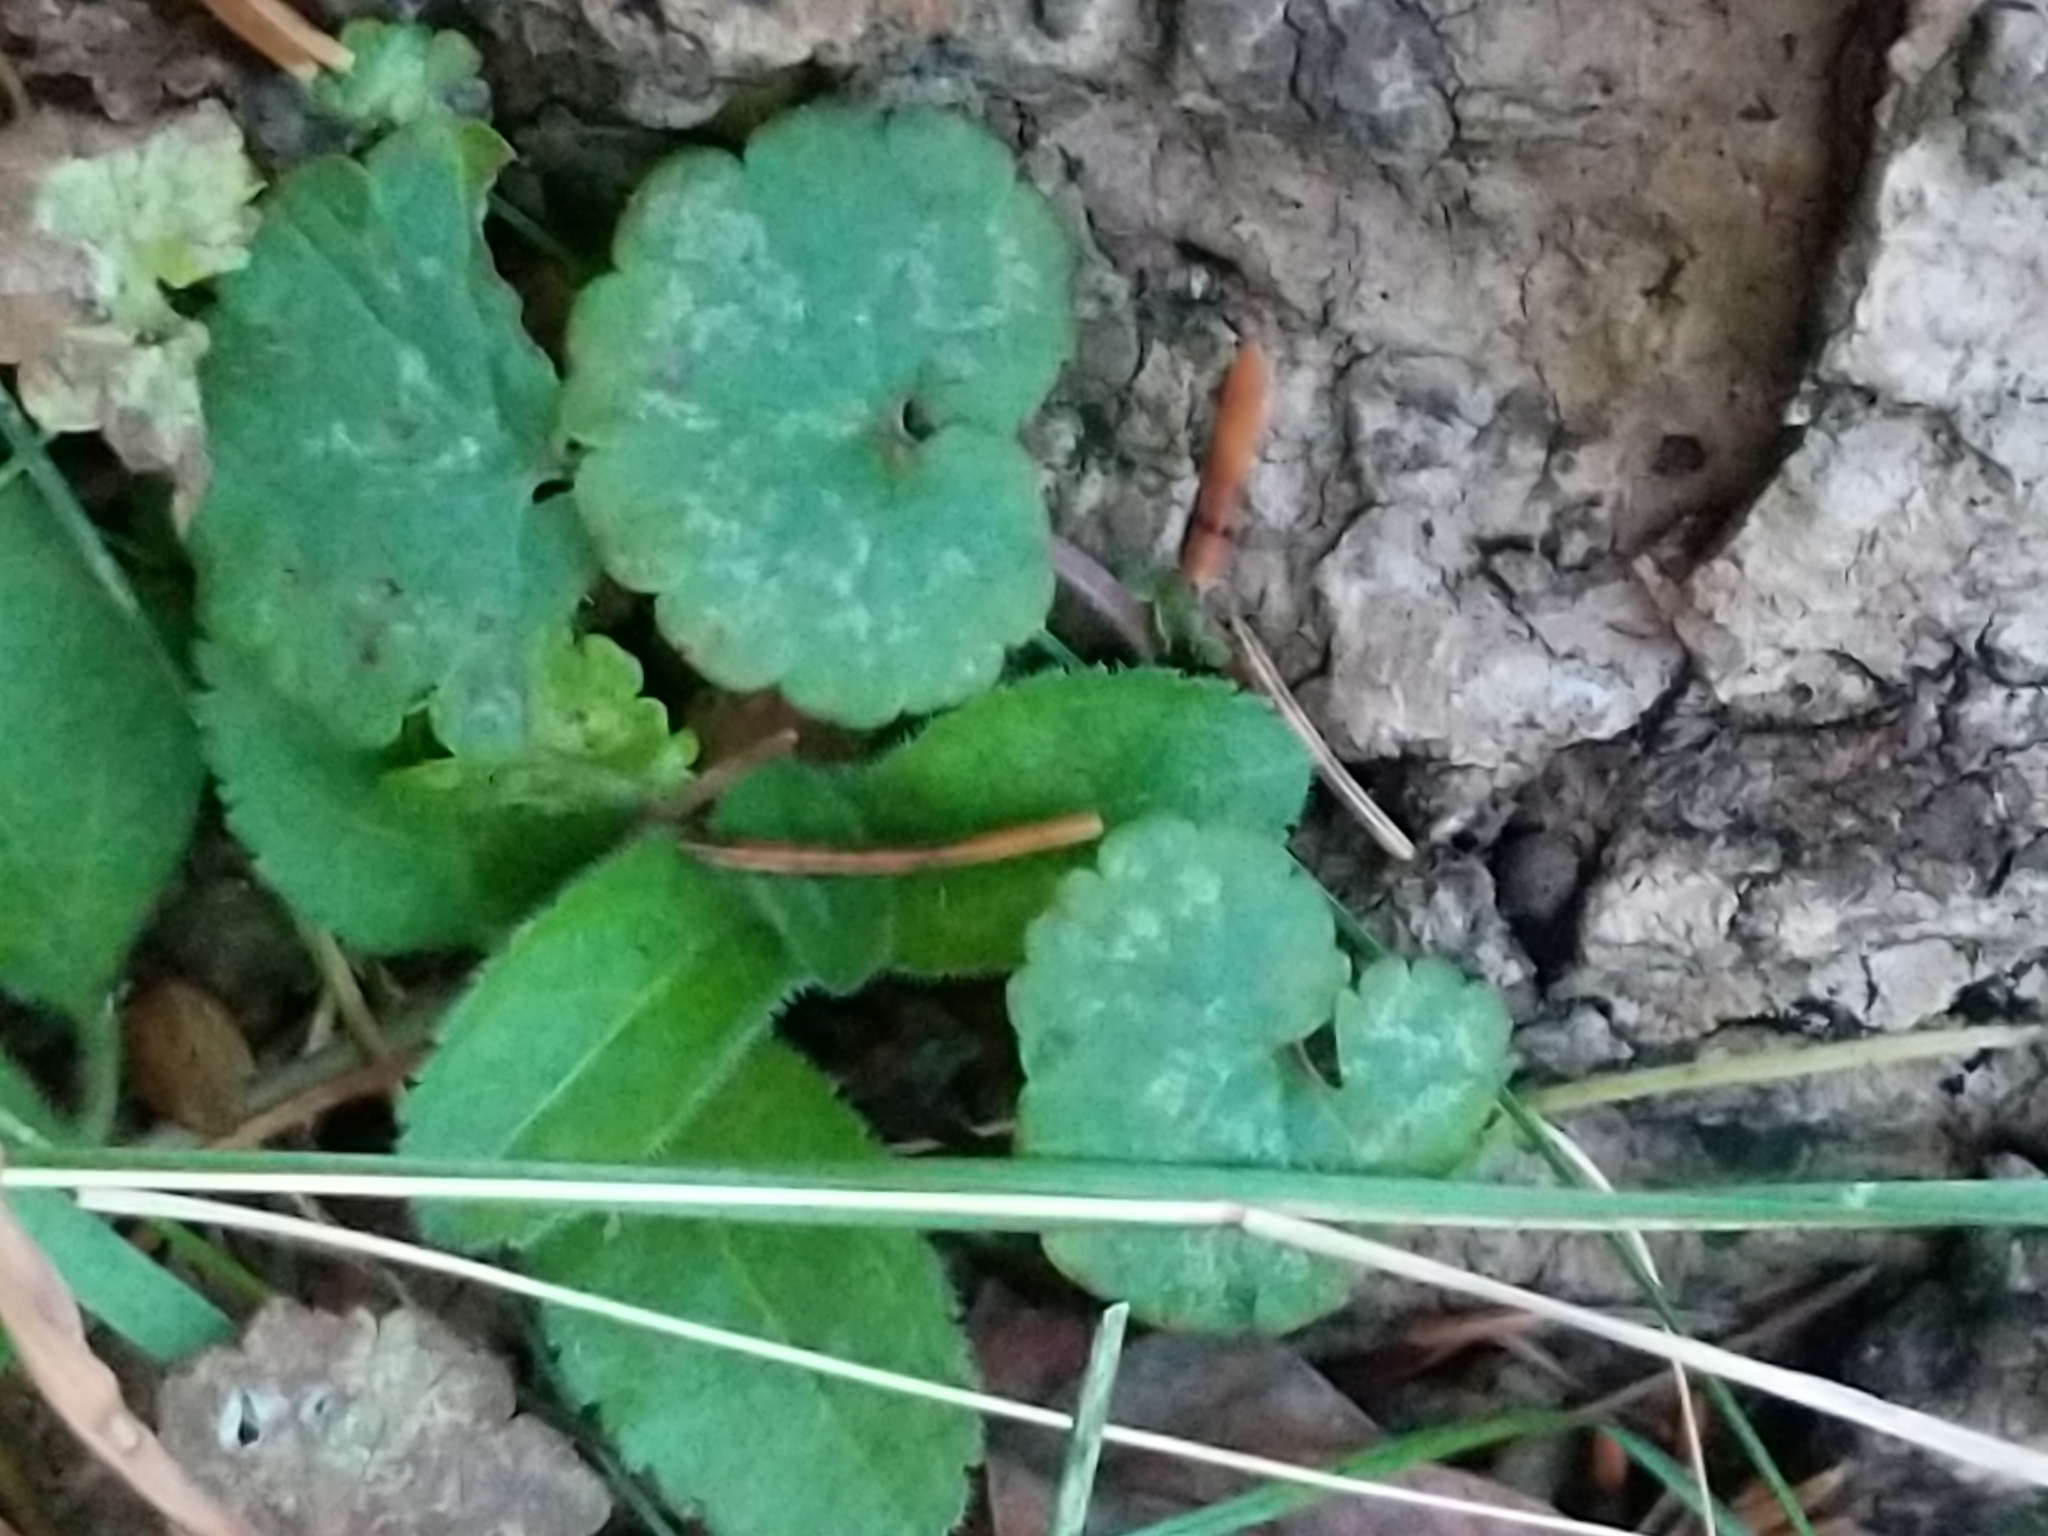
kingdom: Plantae
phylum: Tracheophyta
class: Magnoliopsida
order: Lamiales
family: Lamiaceae
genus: Glechoma
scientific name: Glechoma hederacea
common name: Ground ivy
